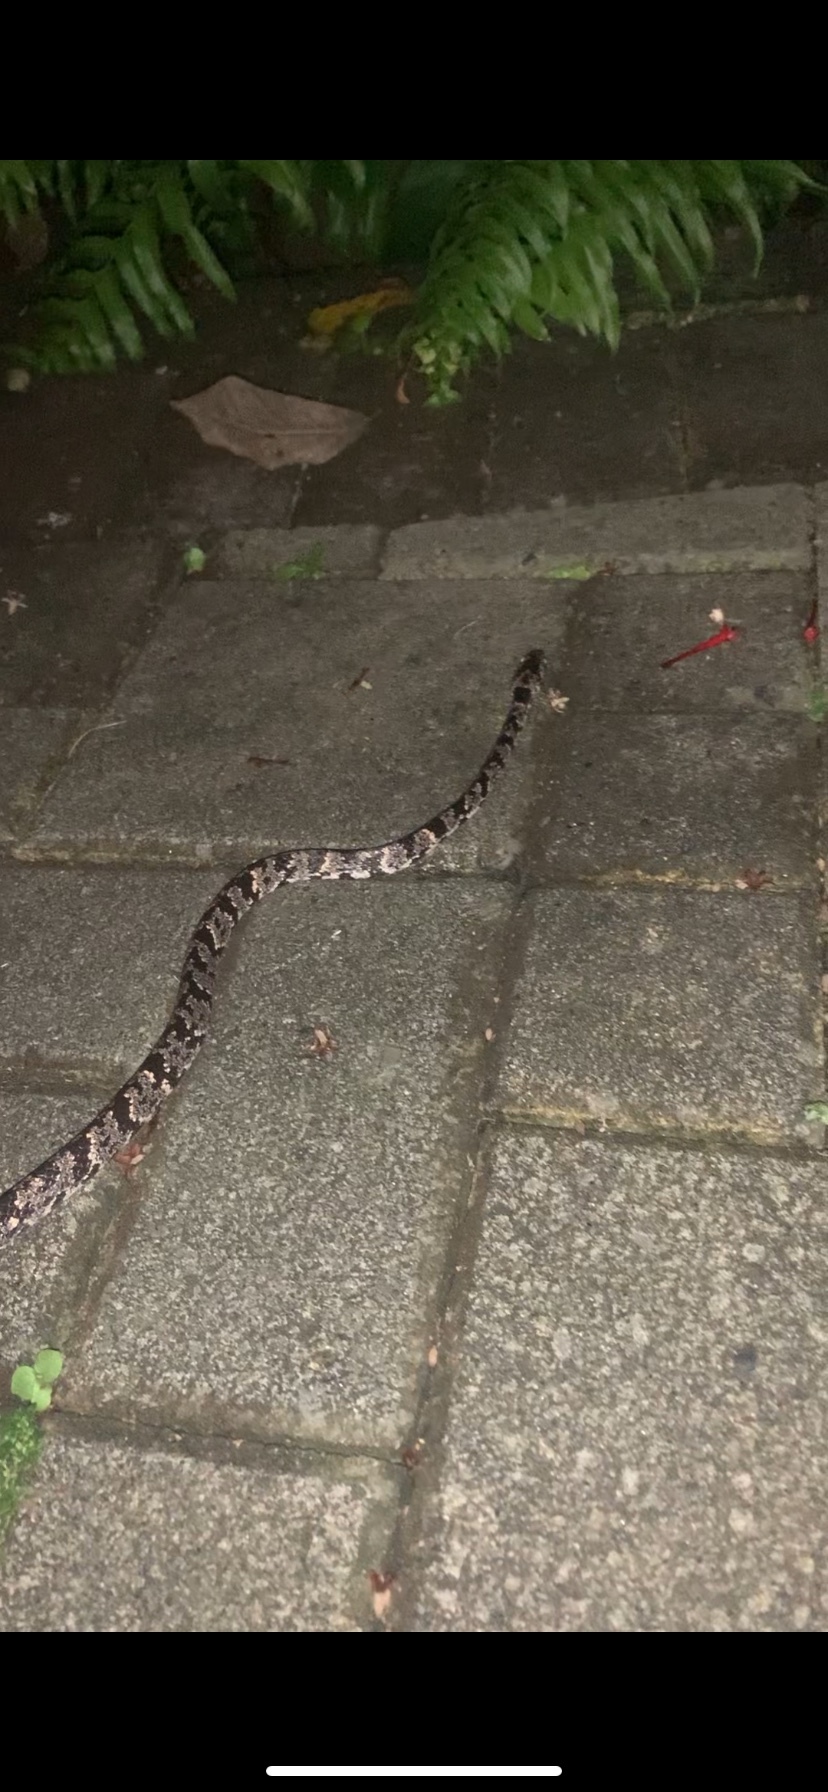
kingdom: Animalia
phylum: Chordata
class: Squamata
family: Colubridae
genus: Sibon
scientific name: Sibon nebulatus
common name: Cloudy snail-eating snake
